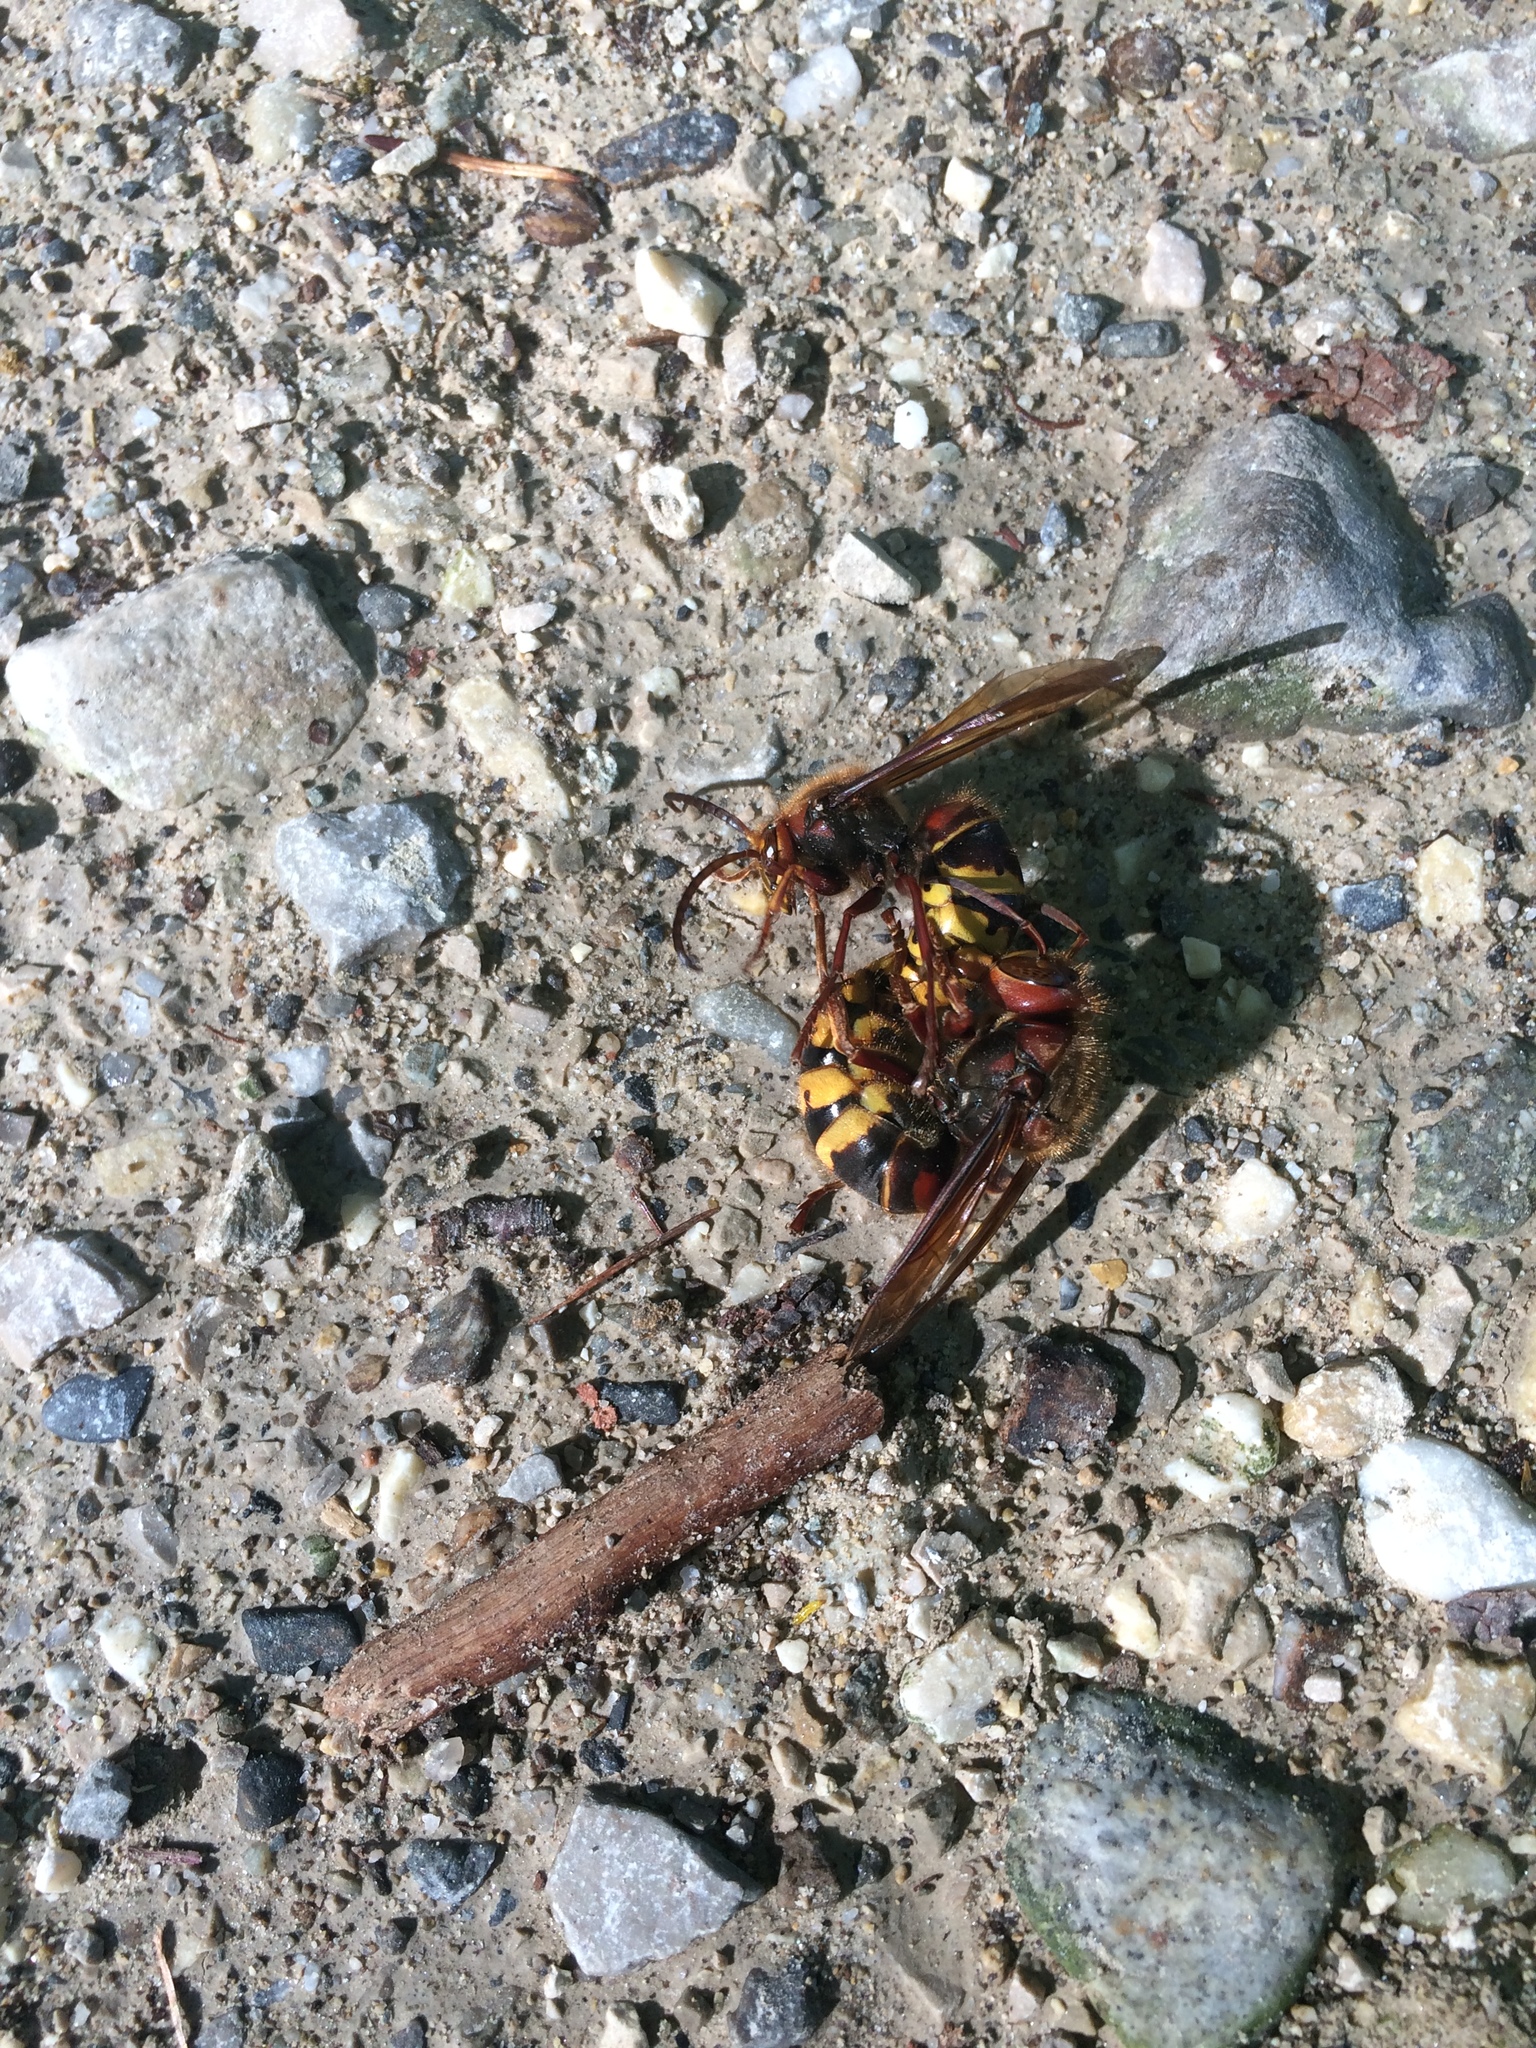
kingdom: Animalia
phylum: Arthropoda
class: Insecta
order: Hymenoptera
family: Vespidae
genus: Vespa
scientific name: Vespa crabro
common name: Hornet
